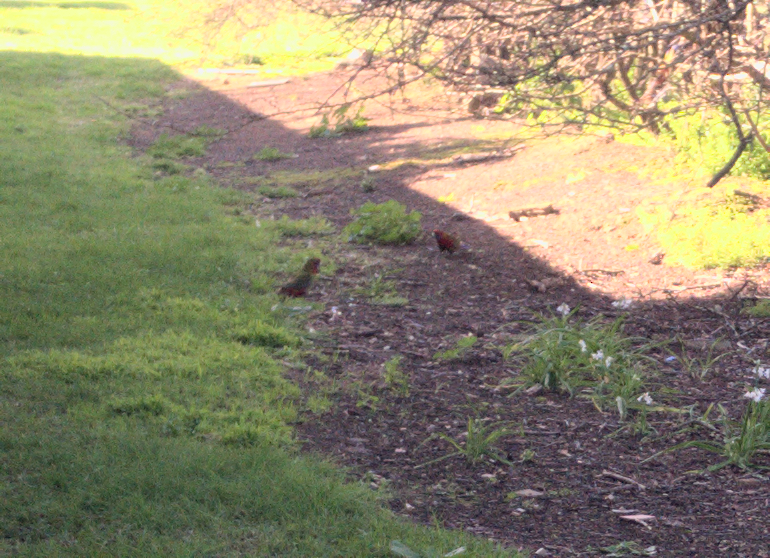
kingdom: Animalia
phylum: Chordata
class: Aves
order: Psittaciformes
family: Psittacidae
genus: Platycercus
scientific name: Platycercus elegans
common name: Crimson rosella
